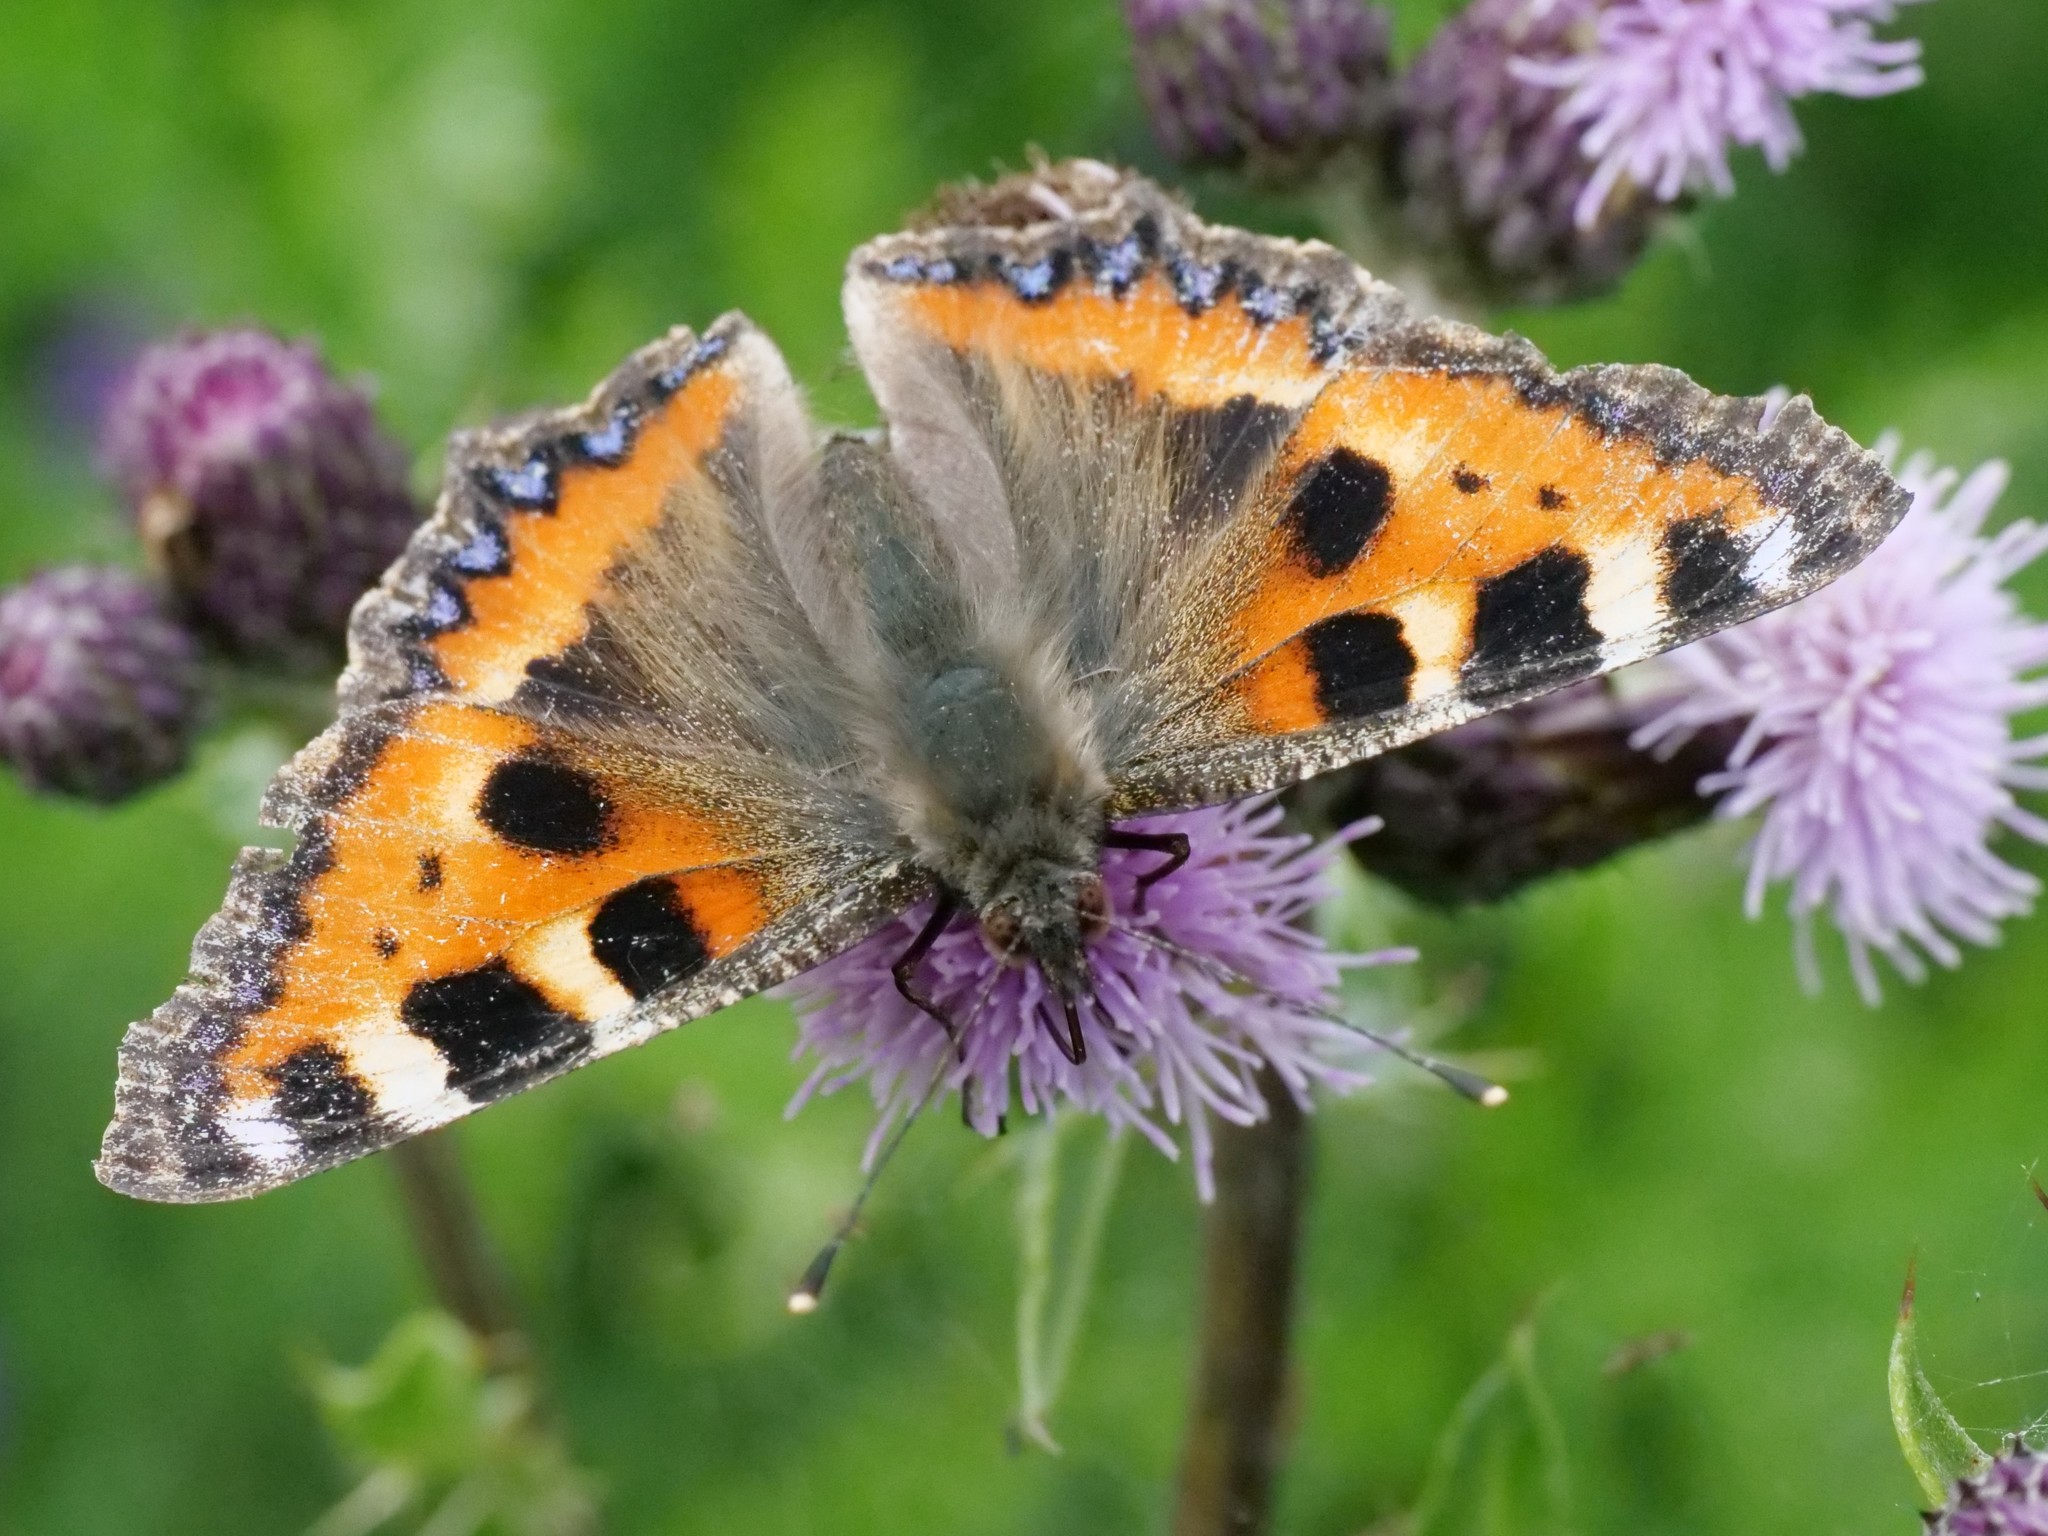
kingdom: Animalia
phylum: Arthropoda
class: Insecta
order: Lepidoptera
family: Nymphalidae
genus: Aglais
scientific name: Aglais urticae
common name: Small tortoiseshell
